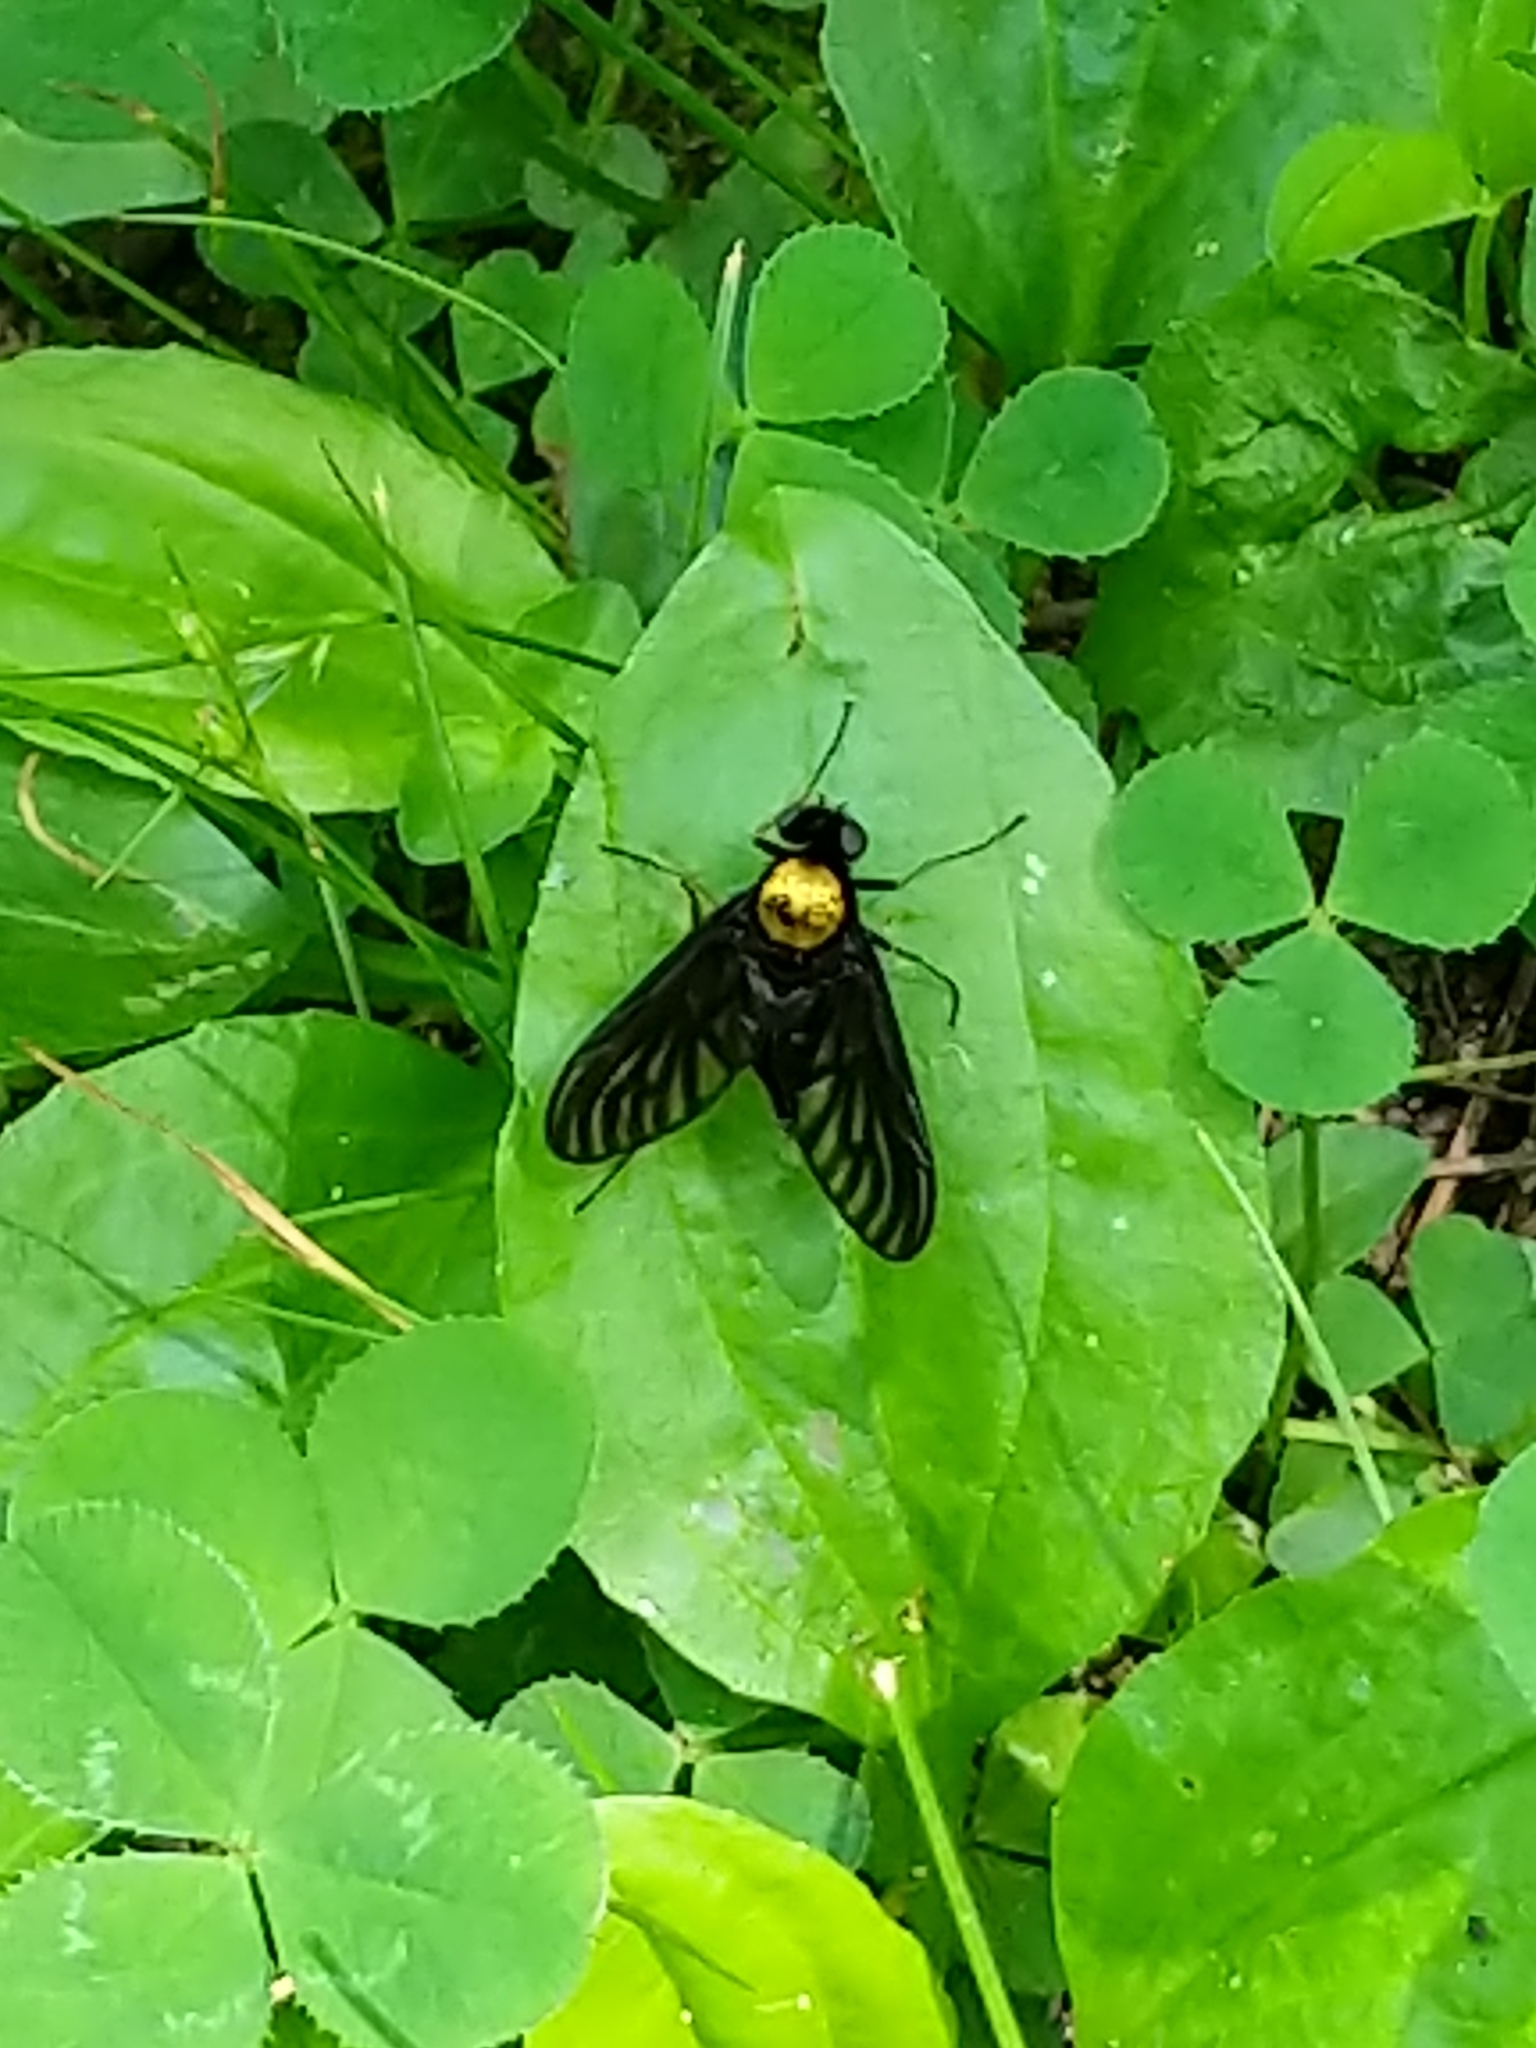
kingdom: Animalia
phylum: Arthropoda
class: Insecta
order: Diptera
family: Rhagionidae
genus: Chrysopilus
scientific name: Chrysopilus thoracicus
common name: Golden-backed snipe fly
